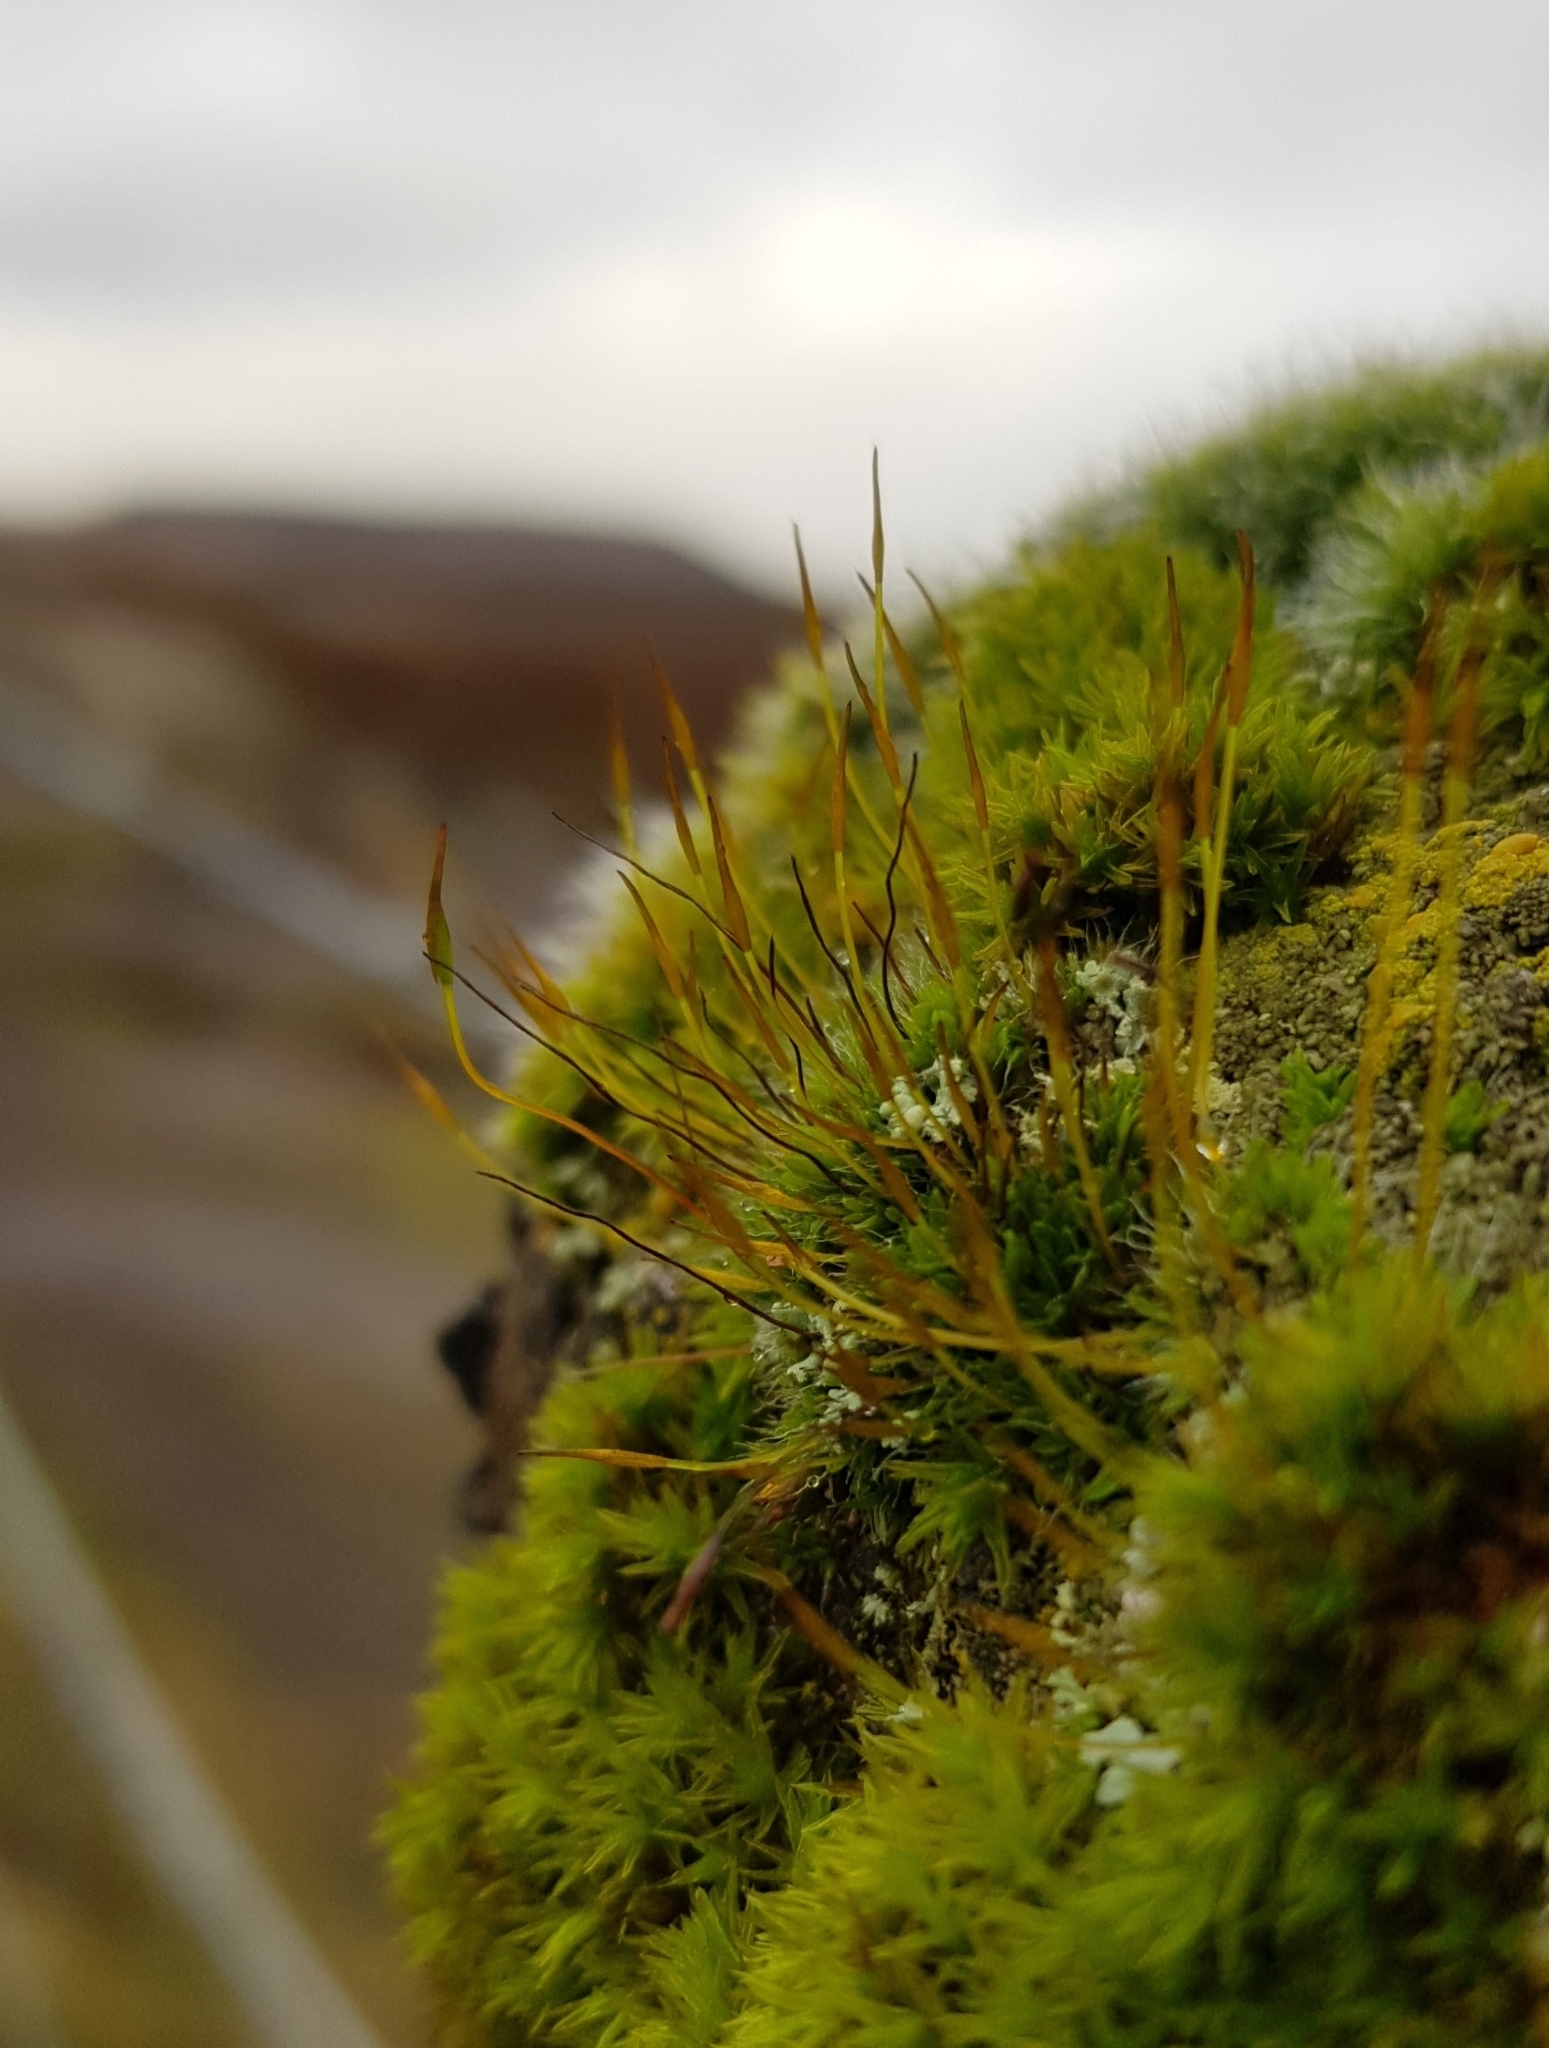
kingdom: Plantae
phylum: Bryophyta
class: Bryopsida
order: Pottiales
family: Pottiaceae
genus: Tortula
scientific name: Tortula muralis
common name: Wall screw-moss
